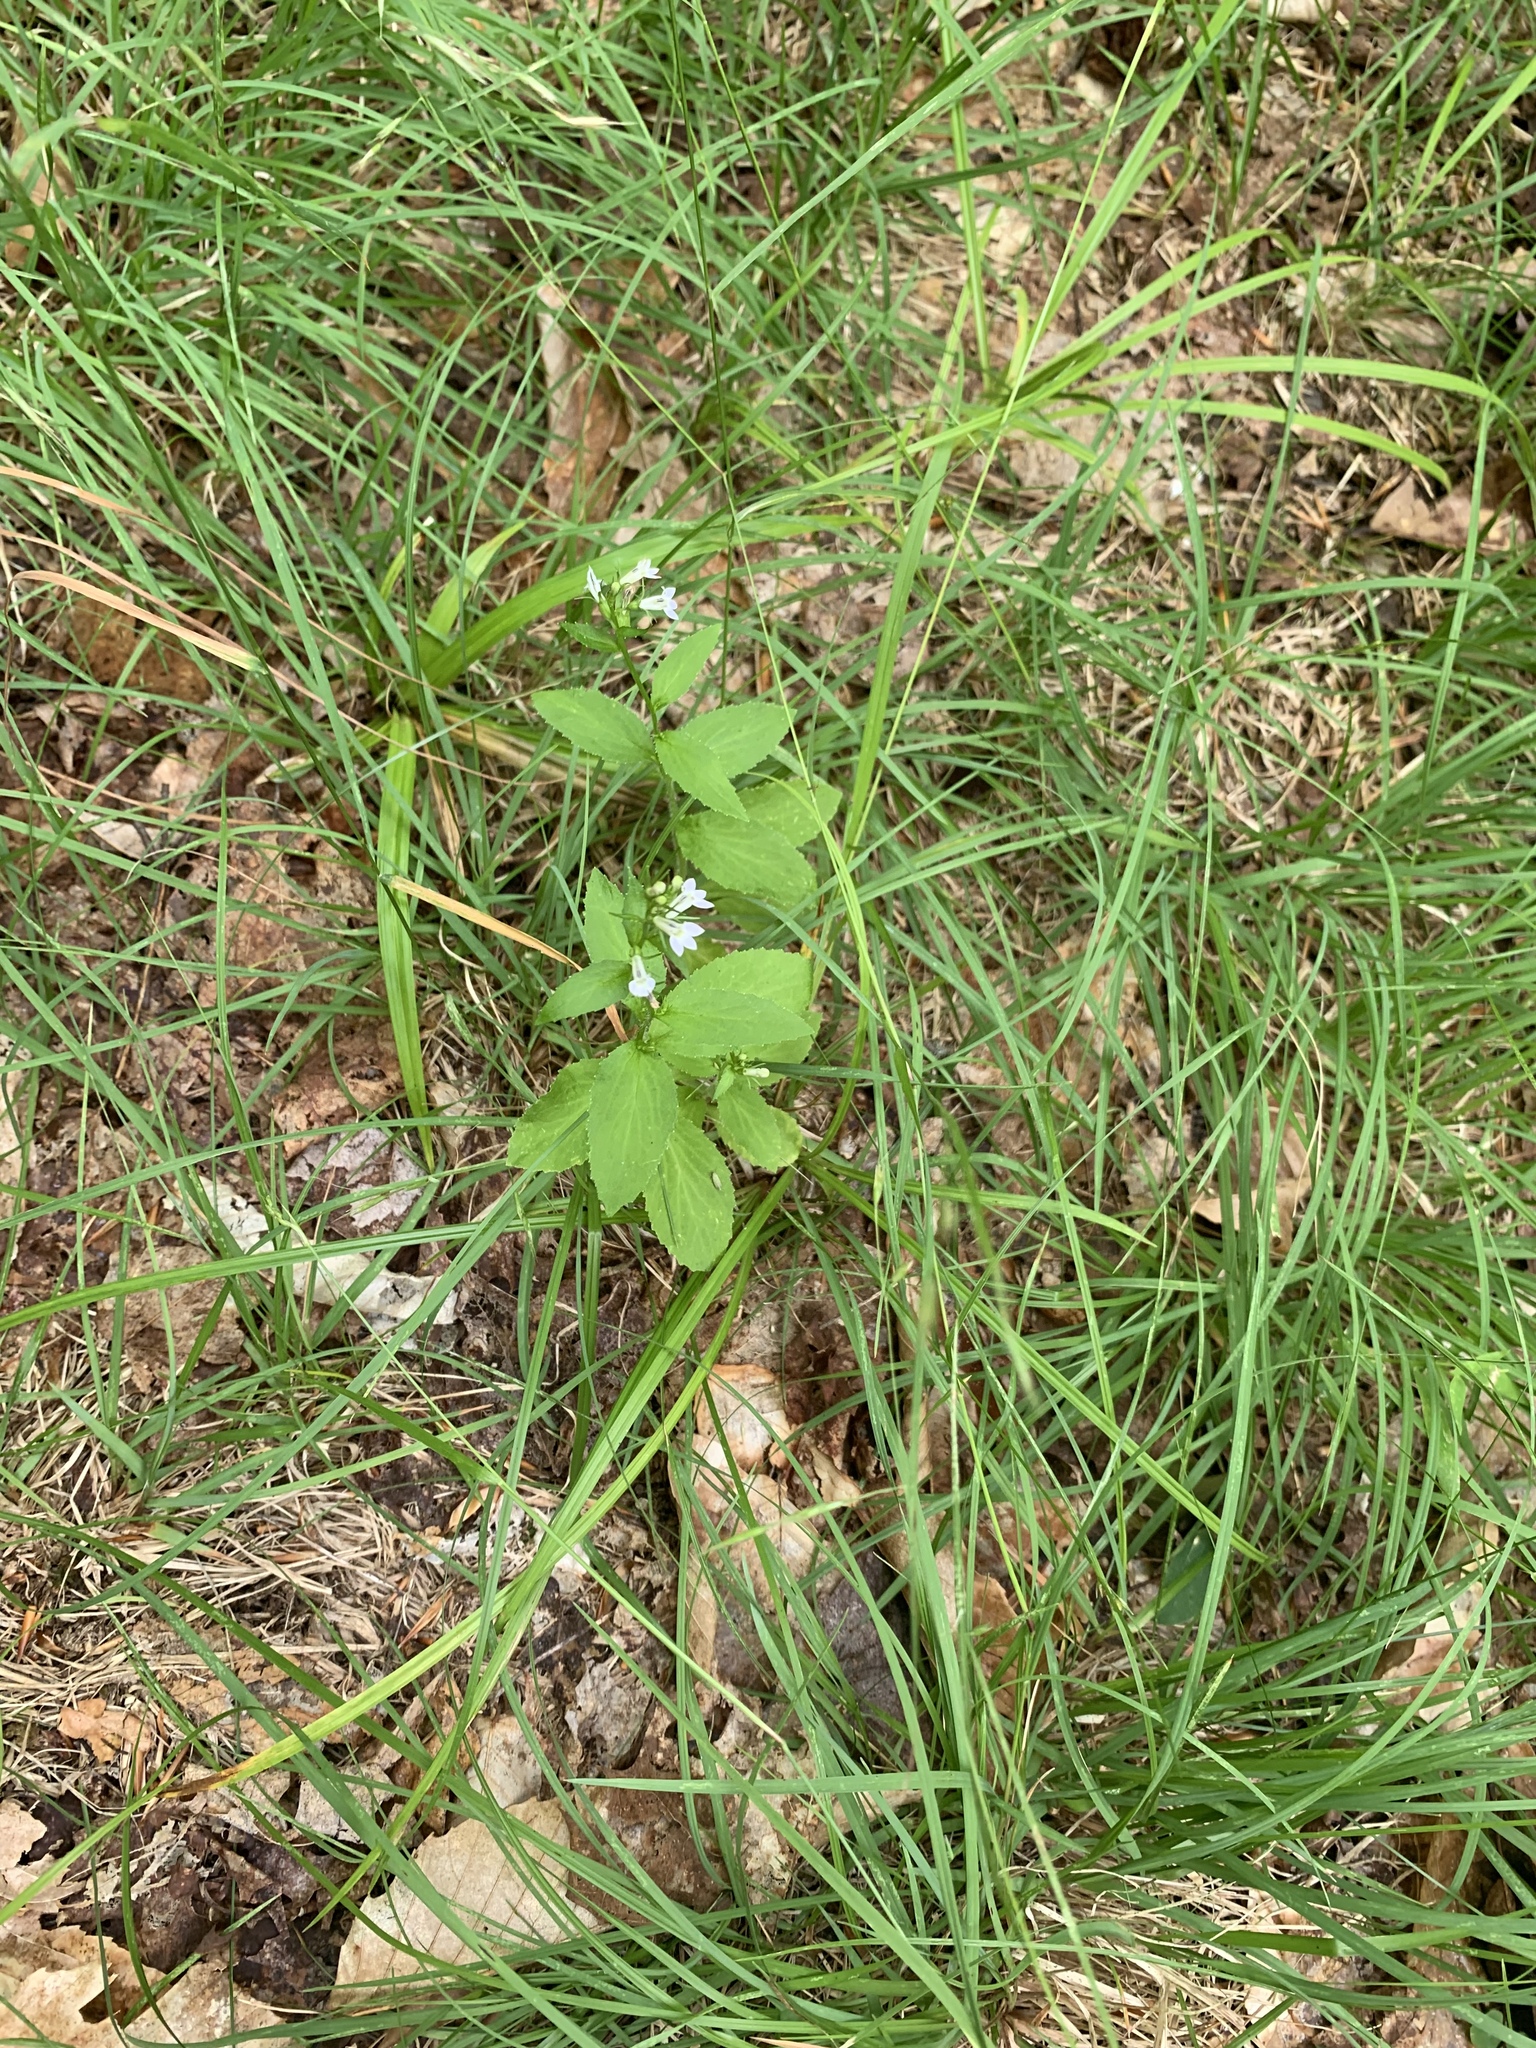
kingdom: Plantae
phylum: Tracheophyta
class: Magnoliopsida
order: Asterales
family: Campanulaceae
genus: Lobelia
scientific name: Lobelia inflata
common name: Indian tobacco
